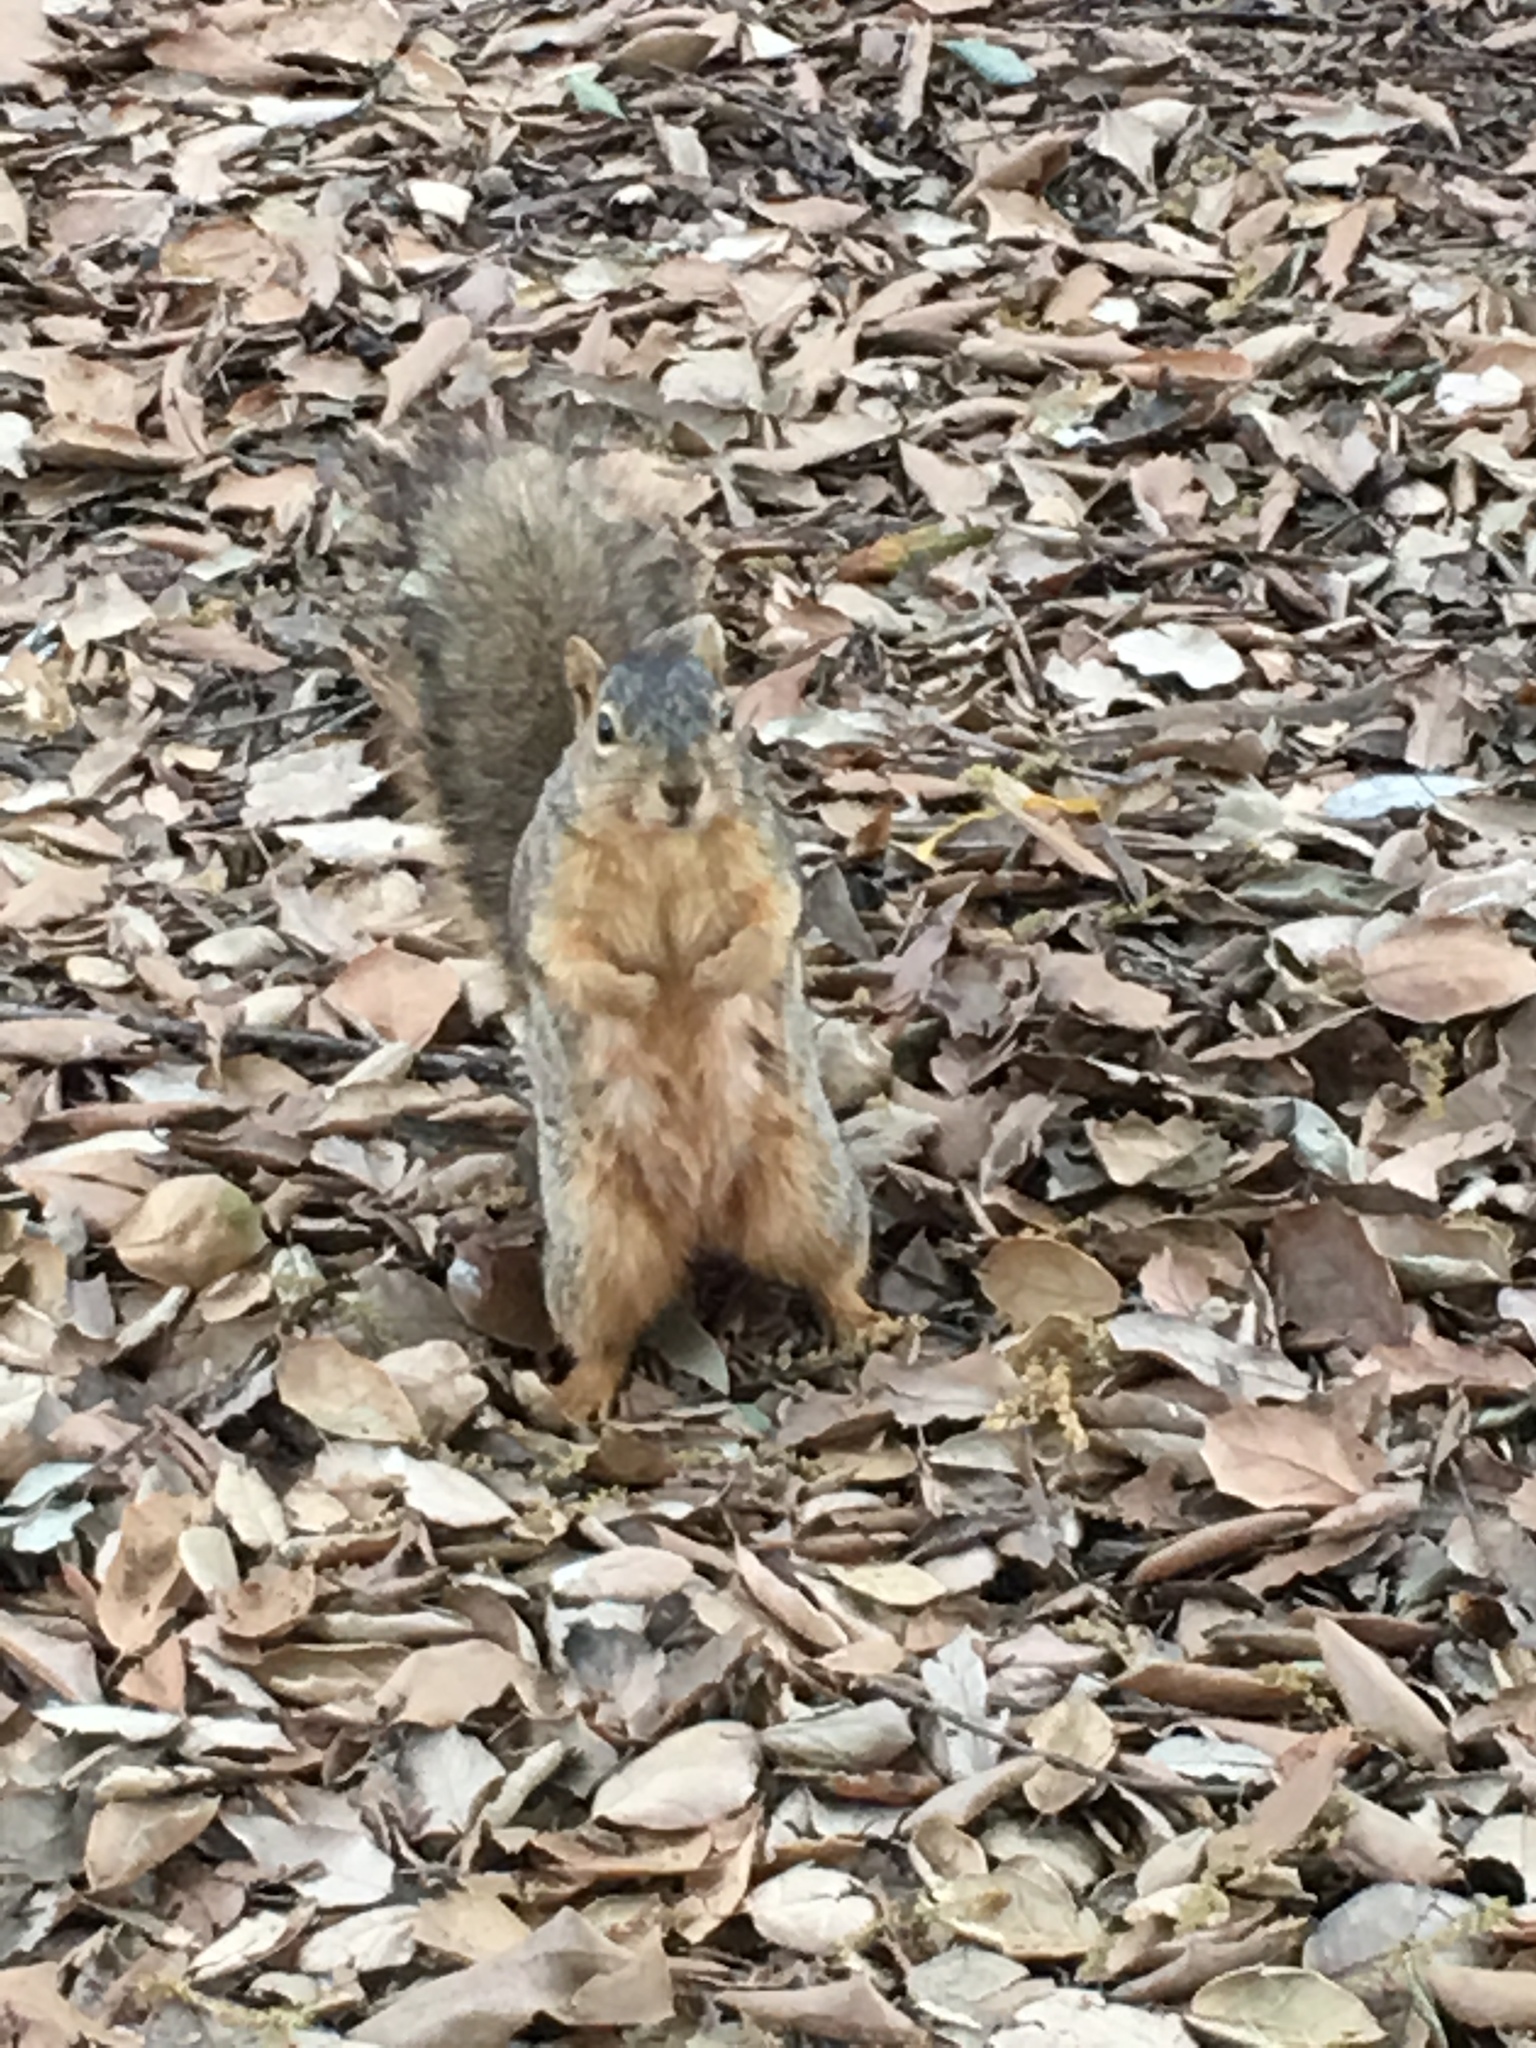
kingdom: Animalia
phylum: Chordata
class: Mammalia
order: Rodentia
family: Sciuridae
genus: Sciurus
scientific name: Sciurus niger
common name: Fox squirrel
